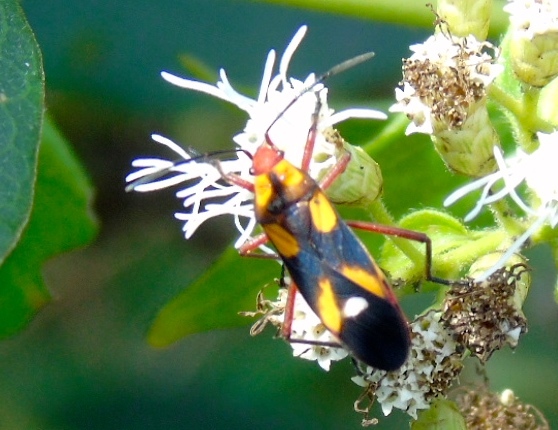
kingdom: Animalia
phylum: Arthropoda
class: Insecta
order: Hemiptera
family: Lygaeidae
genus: Oncopeltus
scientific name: Oncopeltus sexmaculatus
